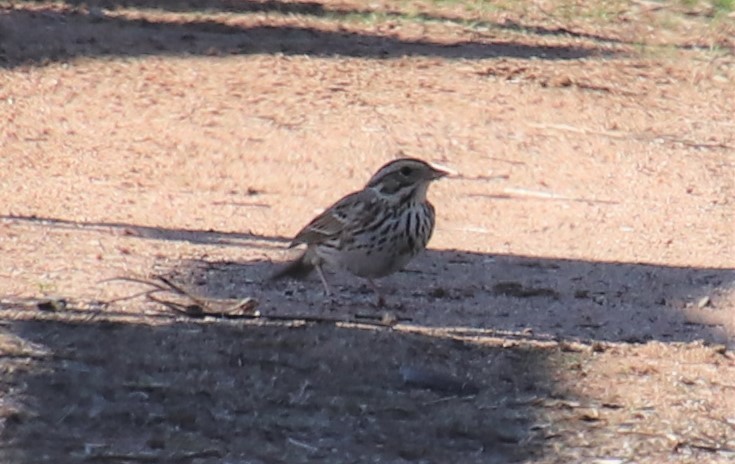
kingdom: Animalia
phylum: Chordata
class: Aves
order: Passeriformes
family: Passerellidae
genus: Passerculus
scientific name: Passerculus sandwichensis
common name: Savannah sparrow
